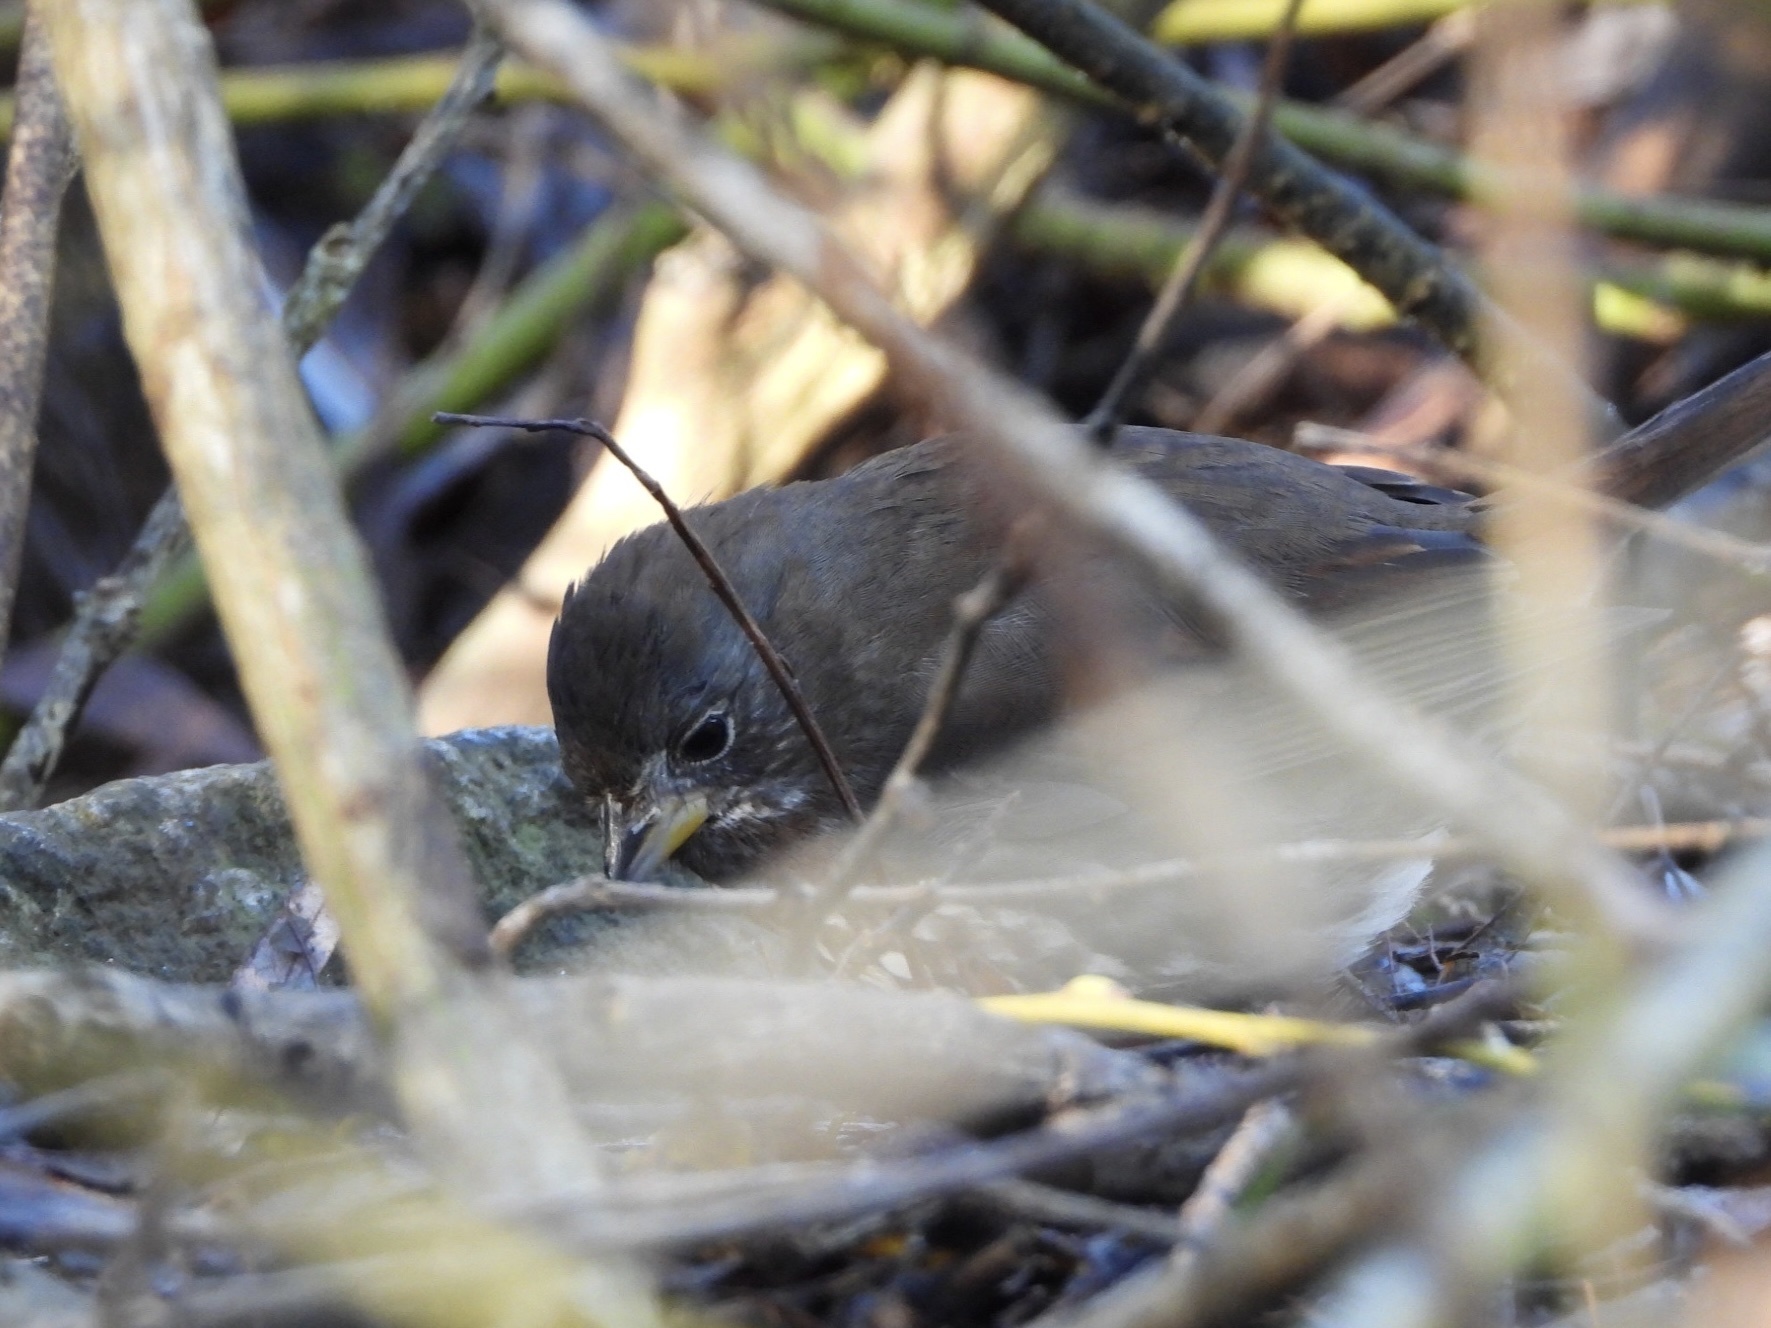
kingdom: Animalia
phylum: Chordata
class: Aves
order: Passeriformes
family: Passerellidae
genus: Passerella
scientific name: Passerella iliaca
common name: Fox sparrow
